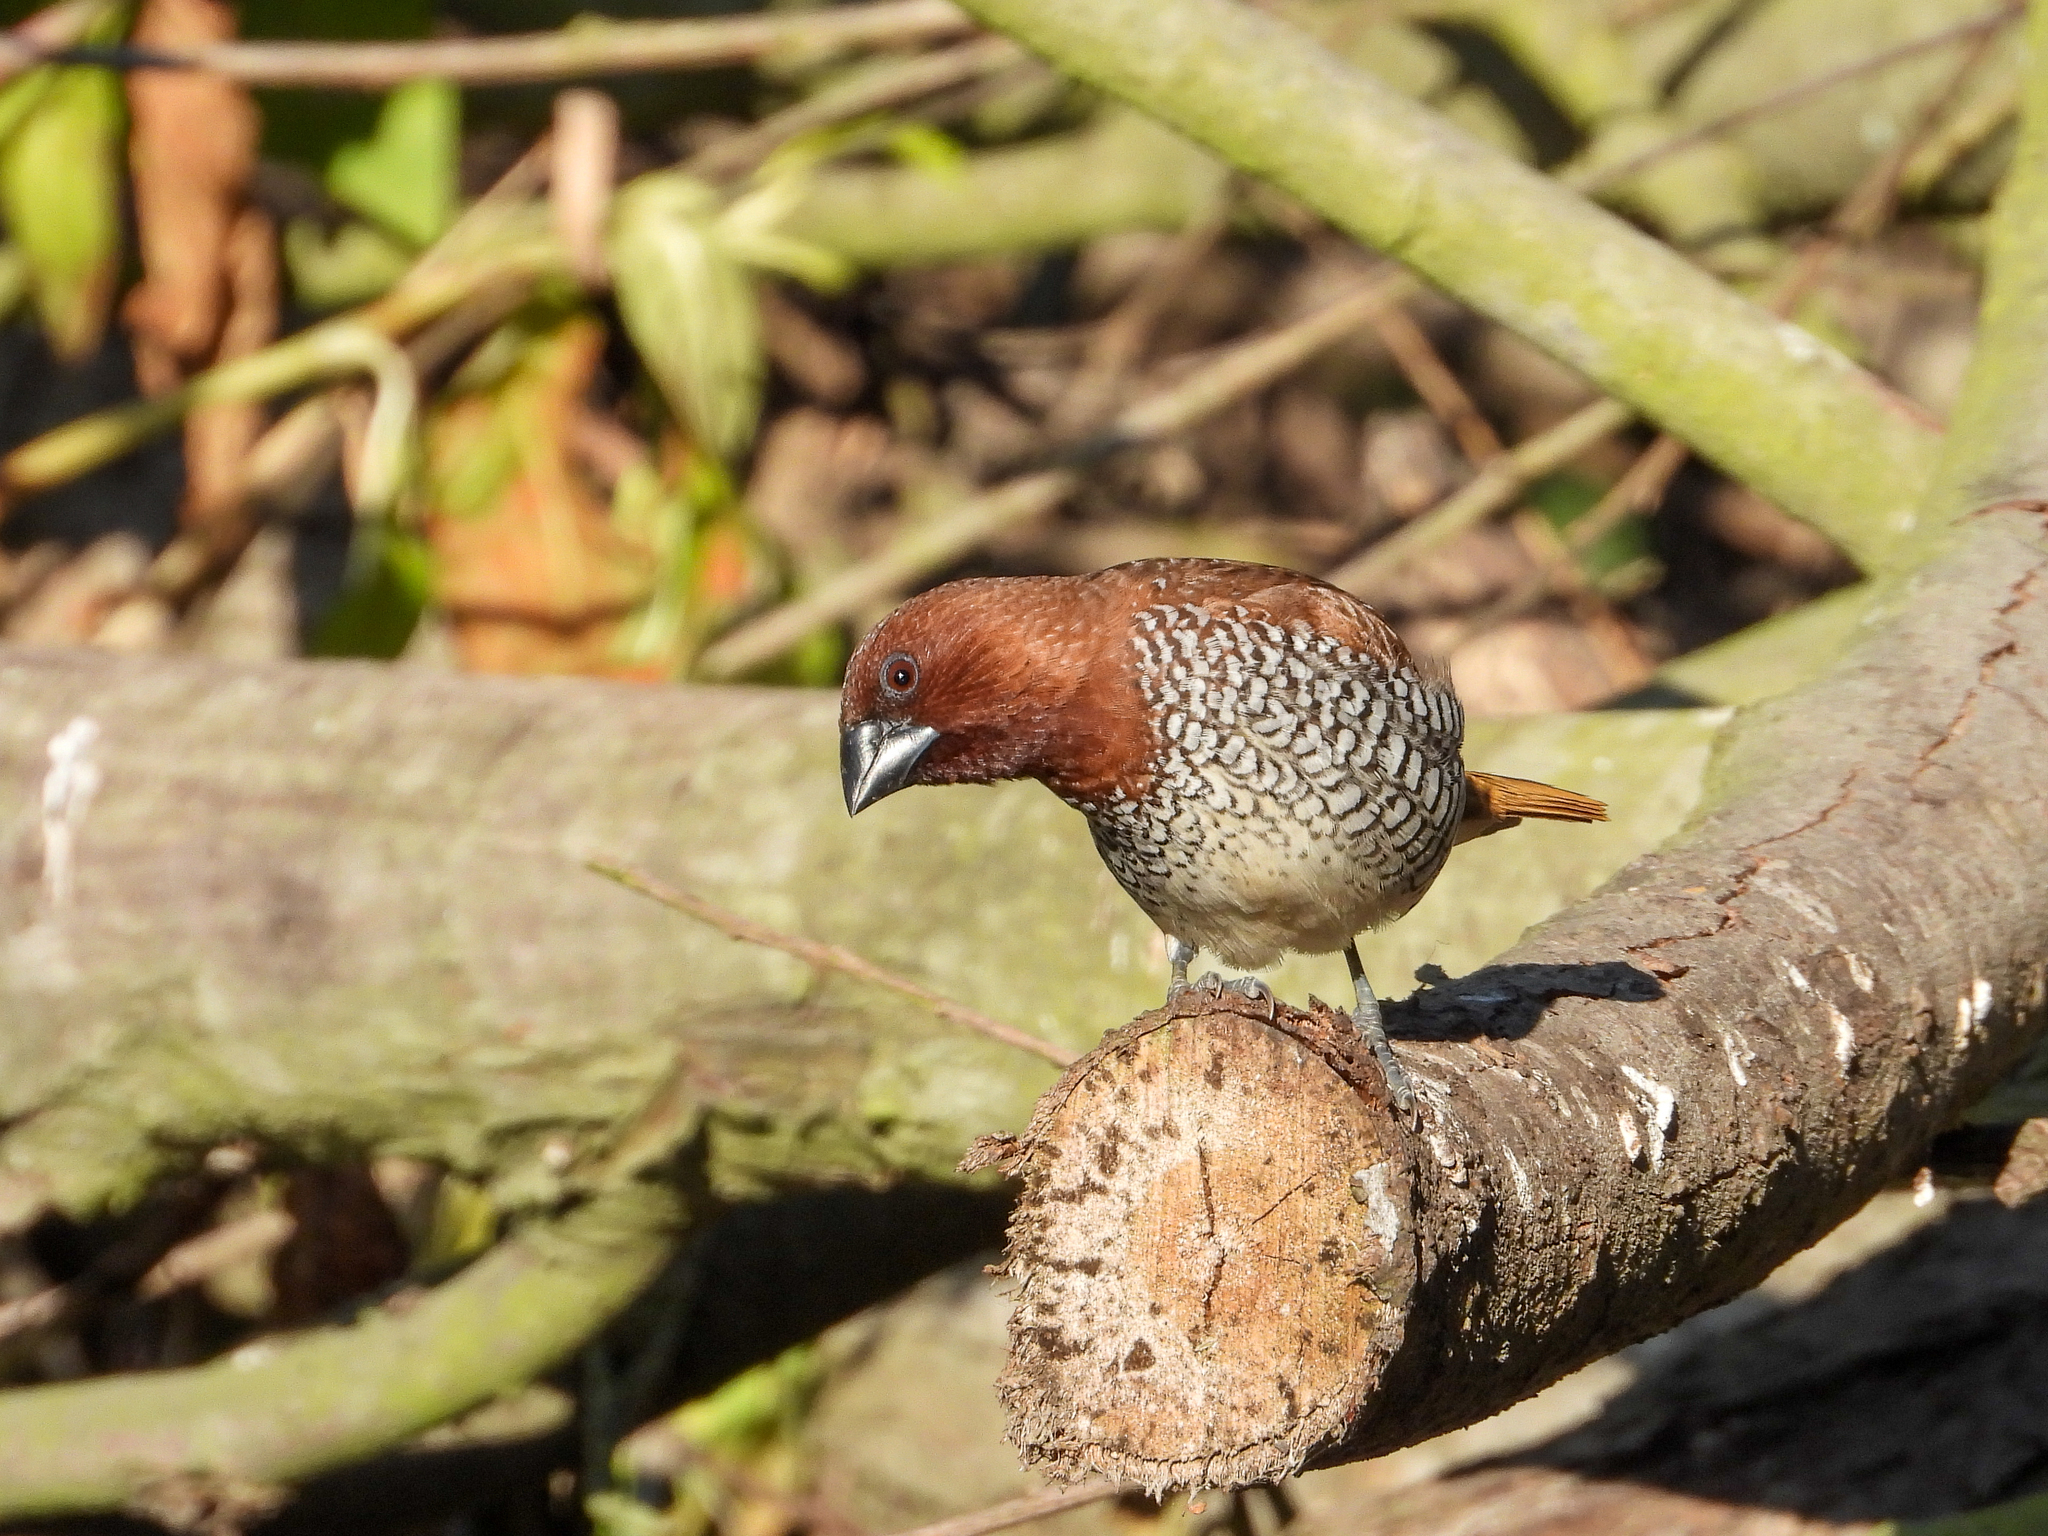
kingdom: Animalia
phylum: Chordata
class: Aves
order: Passeriformes
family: Estrildidae
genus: Lonchura
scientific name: Lonchura punctulata
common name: Scaly-breasted munia
